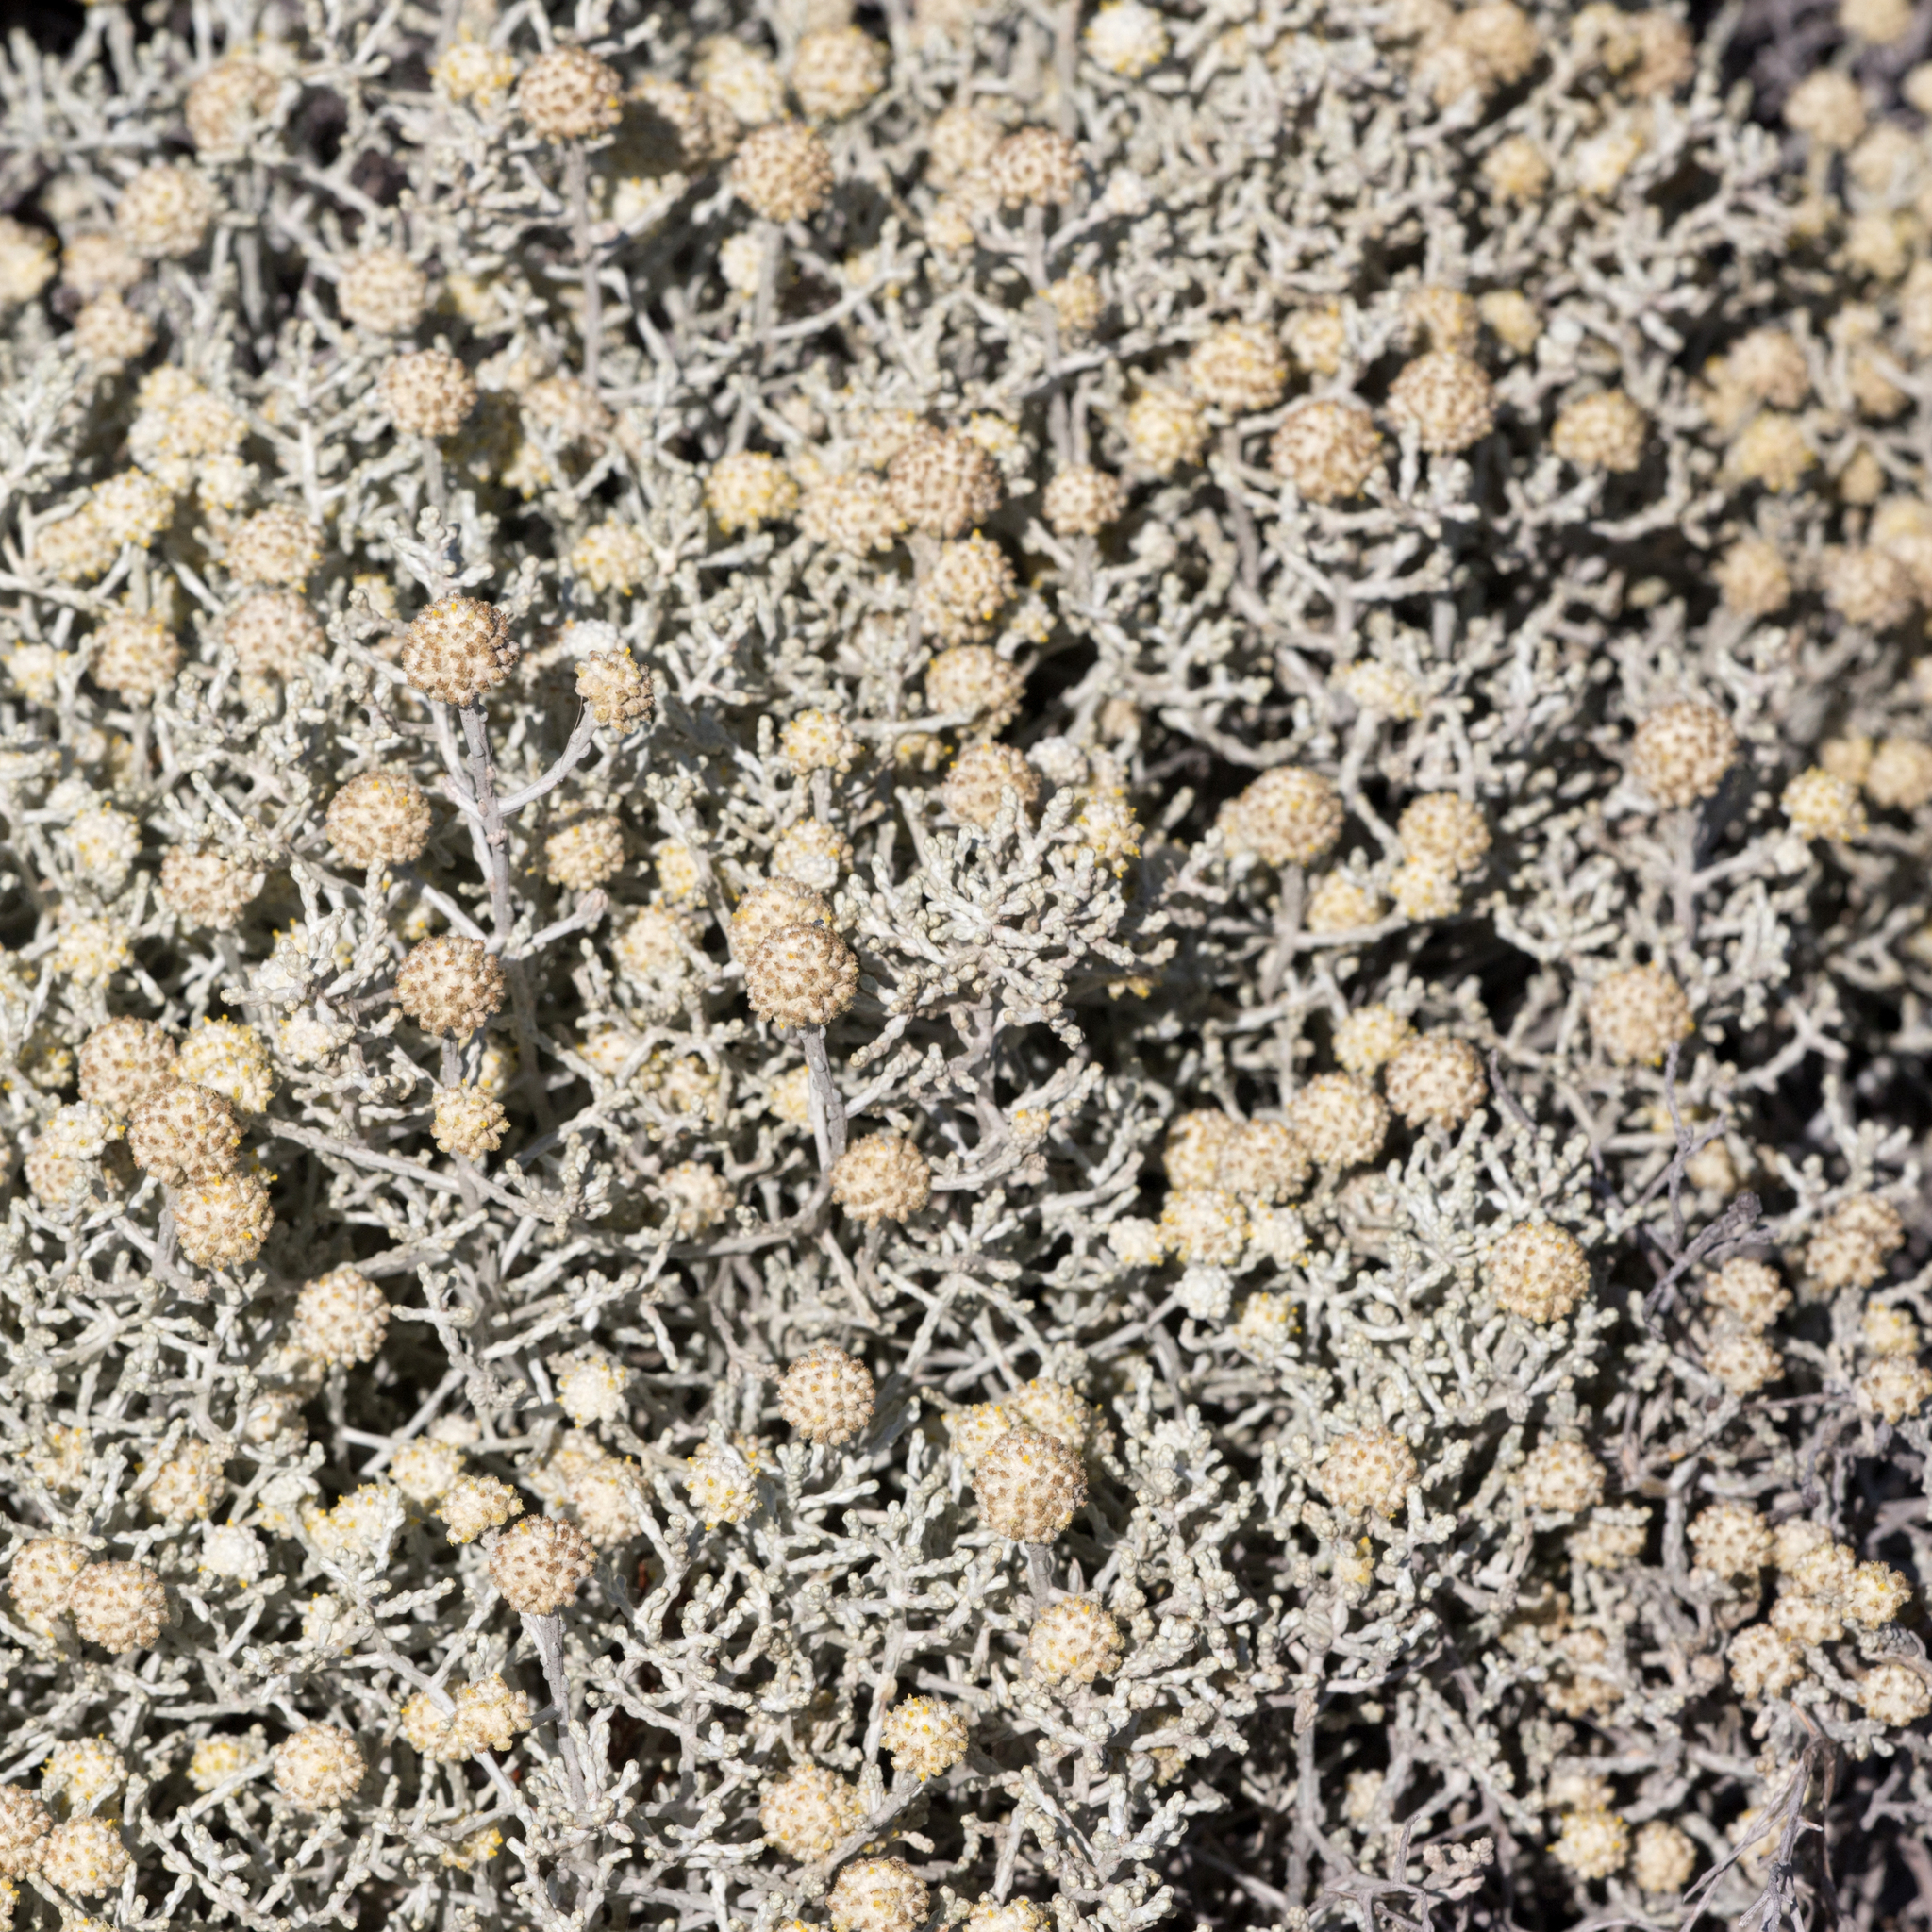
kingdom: Plantae
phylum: Tracheophyta
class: Magnoliopsida
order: Asterales
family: Asteraceae
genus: Calocephalus
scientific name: Calocephalus brownii
